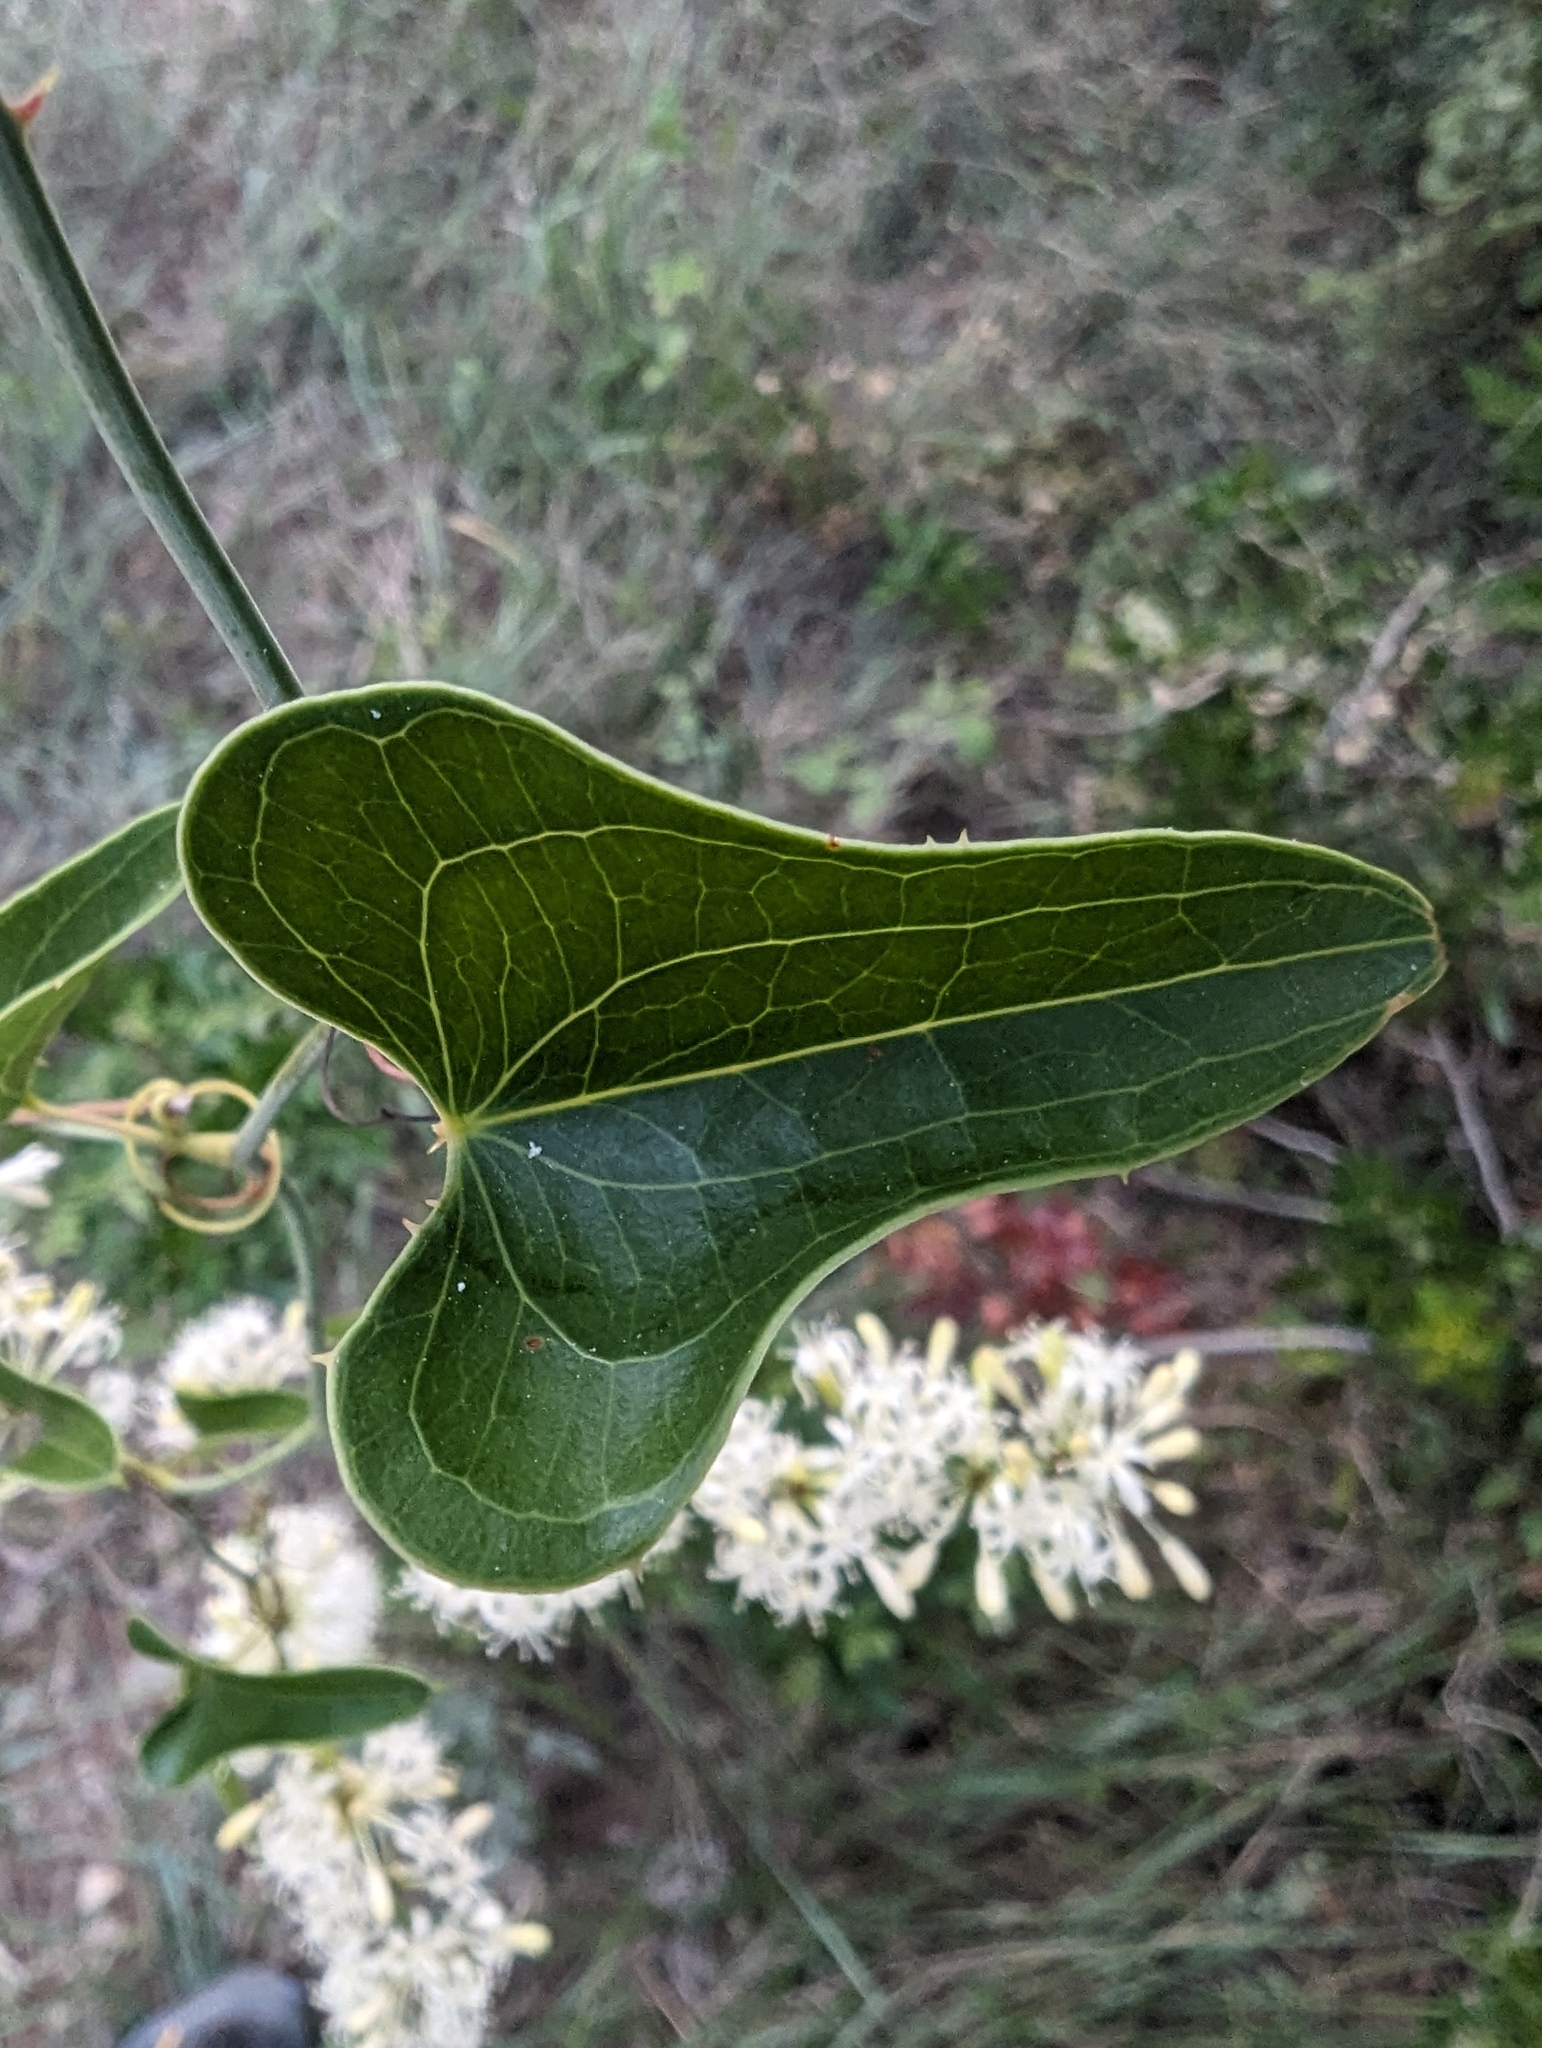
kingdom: Plantae
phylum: Tracheophyta
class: Liliopsida
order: Liliales
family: Smilacaceae
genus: Smilax
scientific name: Smilax aspera
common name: Common smilax
